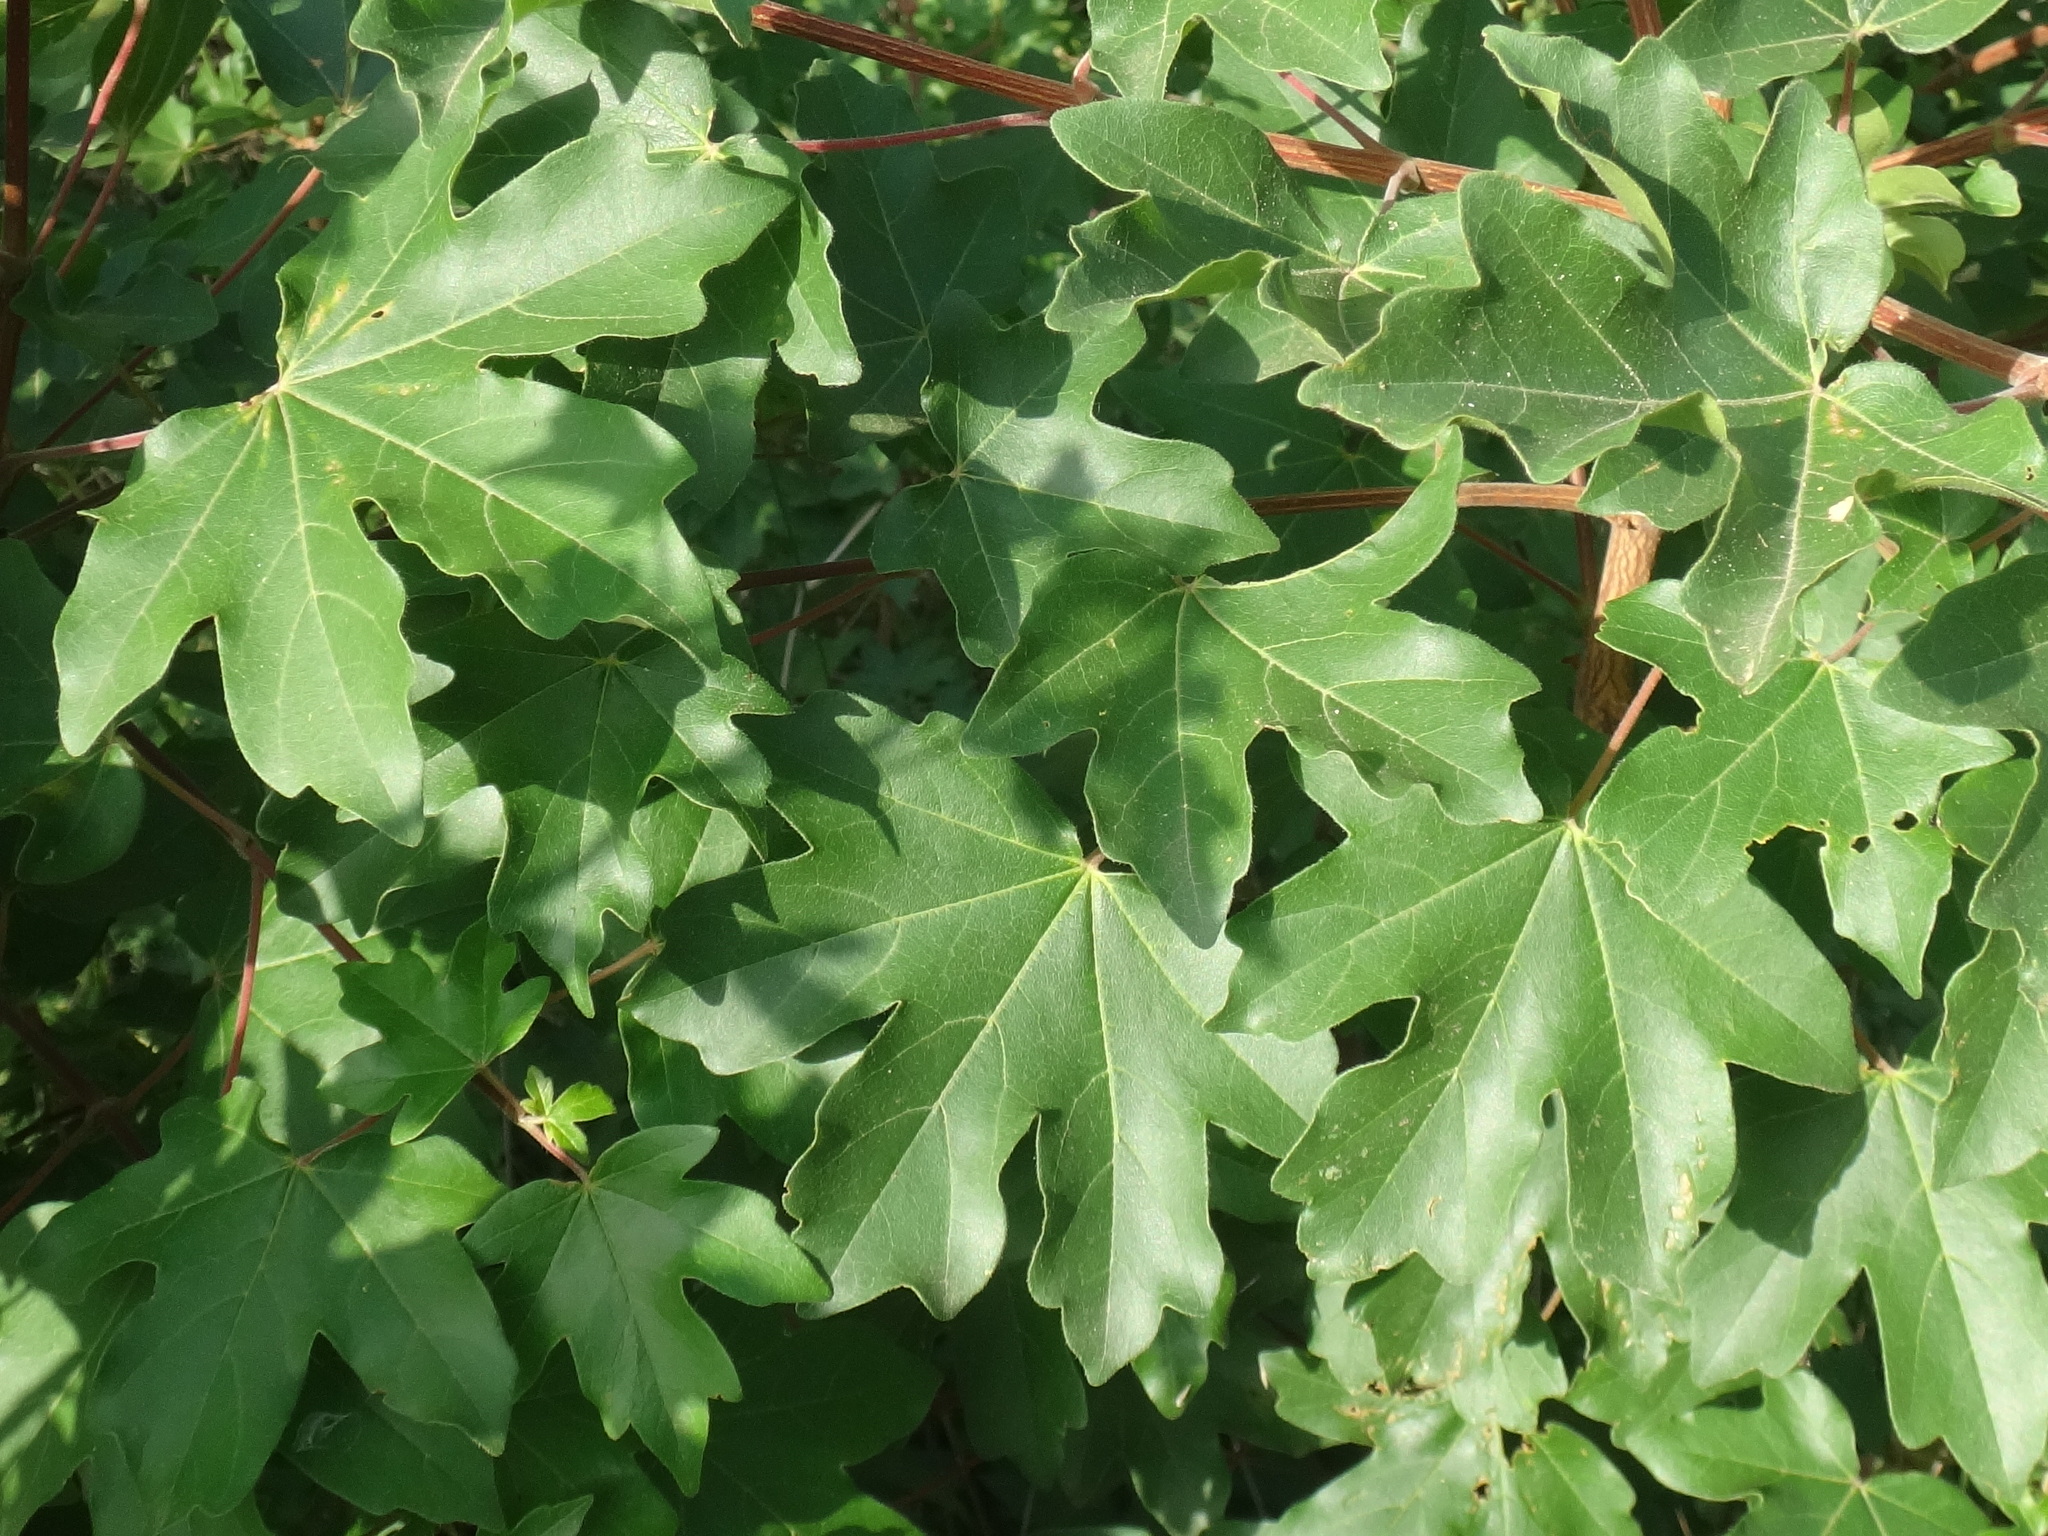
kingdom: Plantae
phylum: Tracheophyta
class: Magnoliopsida
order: Sapindales
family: Sapindaceae
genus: Acer
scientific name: Acer campestre
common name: Field maple
